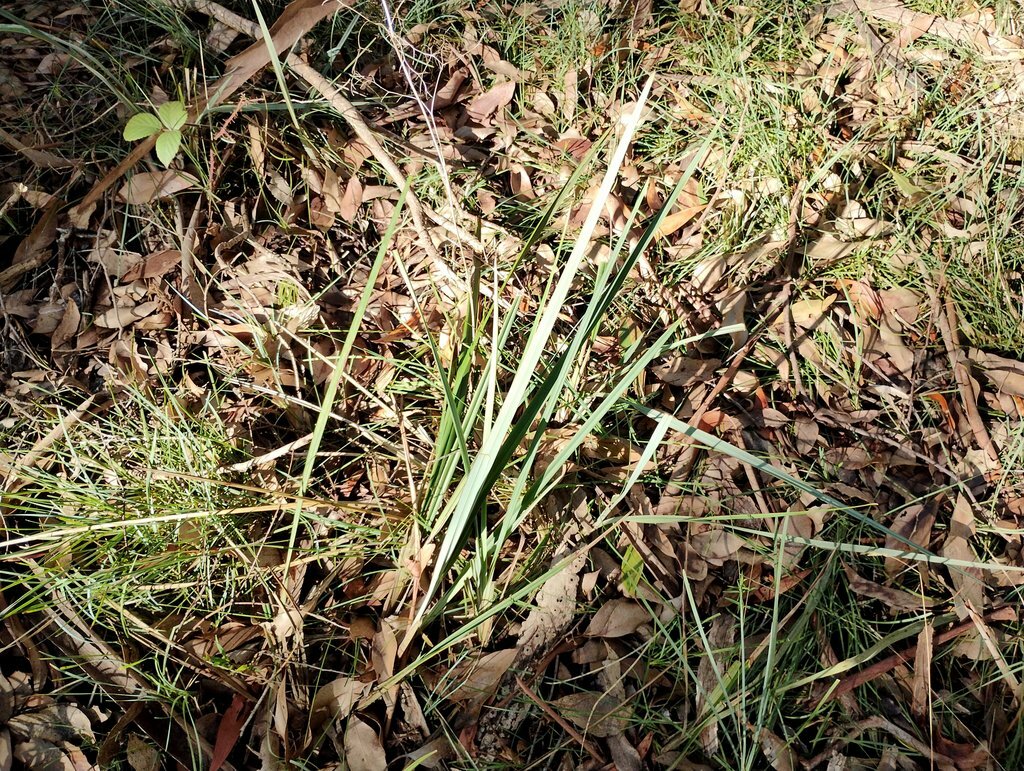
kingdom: Plantae
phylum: Tracheophyta
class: Liliopsida
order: Asparagales
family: Asphodelaceae
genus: Dianella
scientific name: Dianella revoluta
